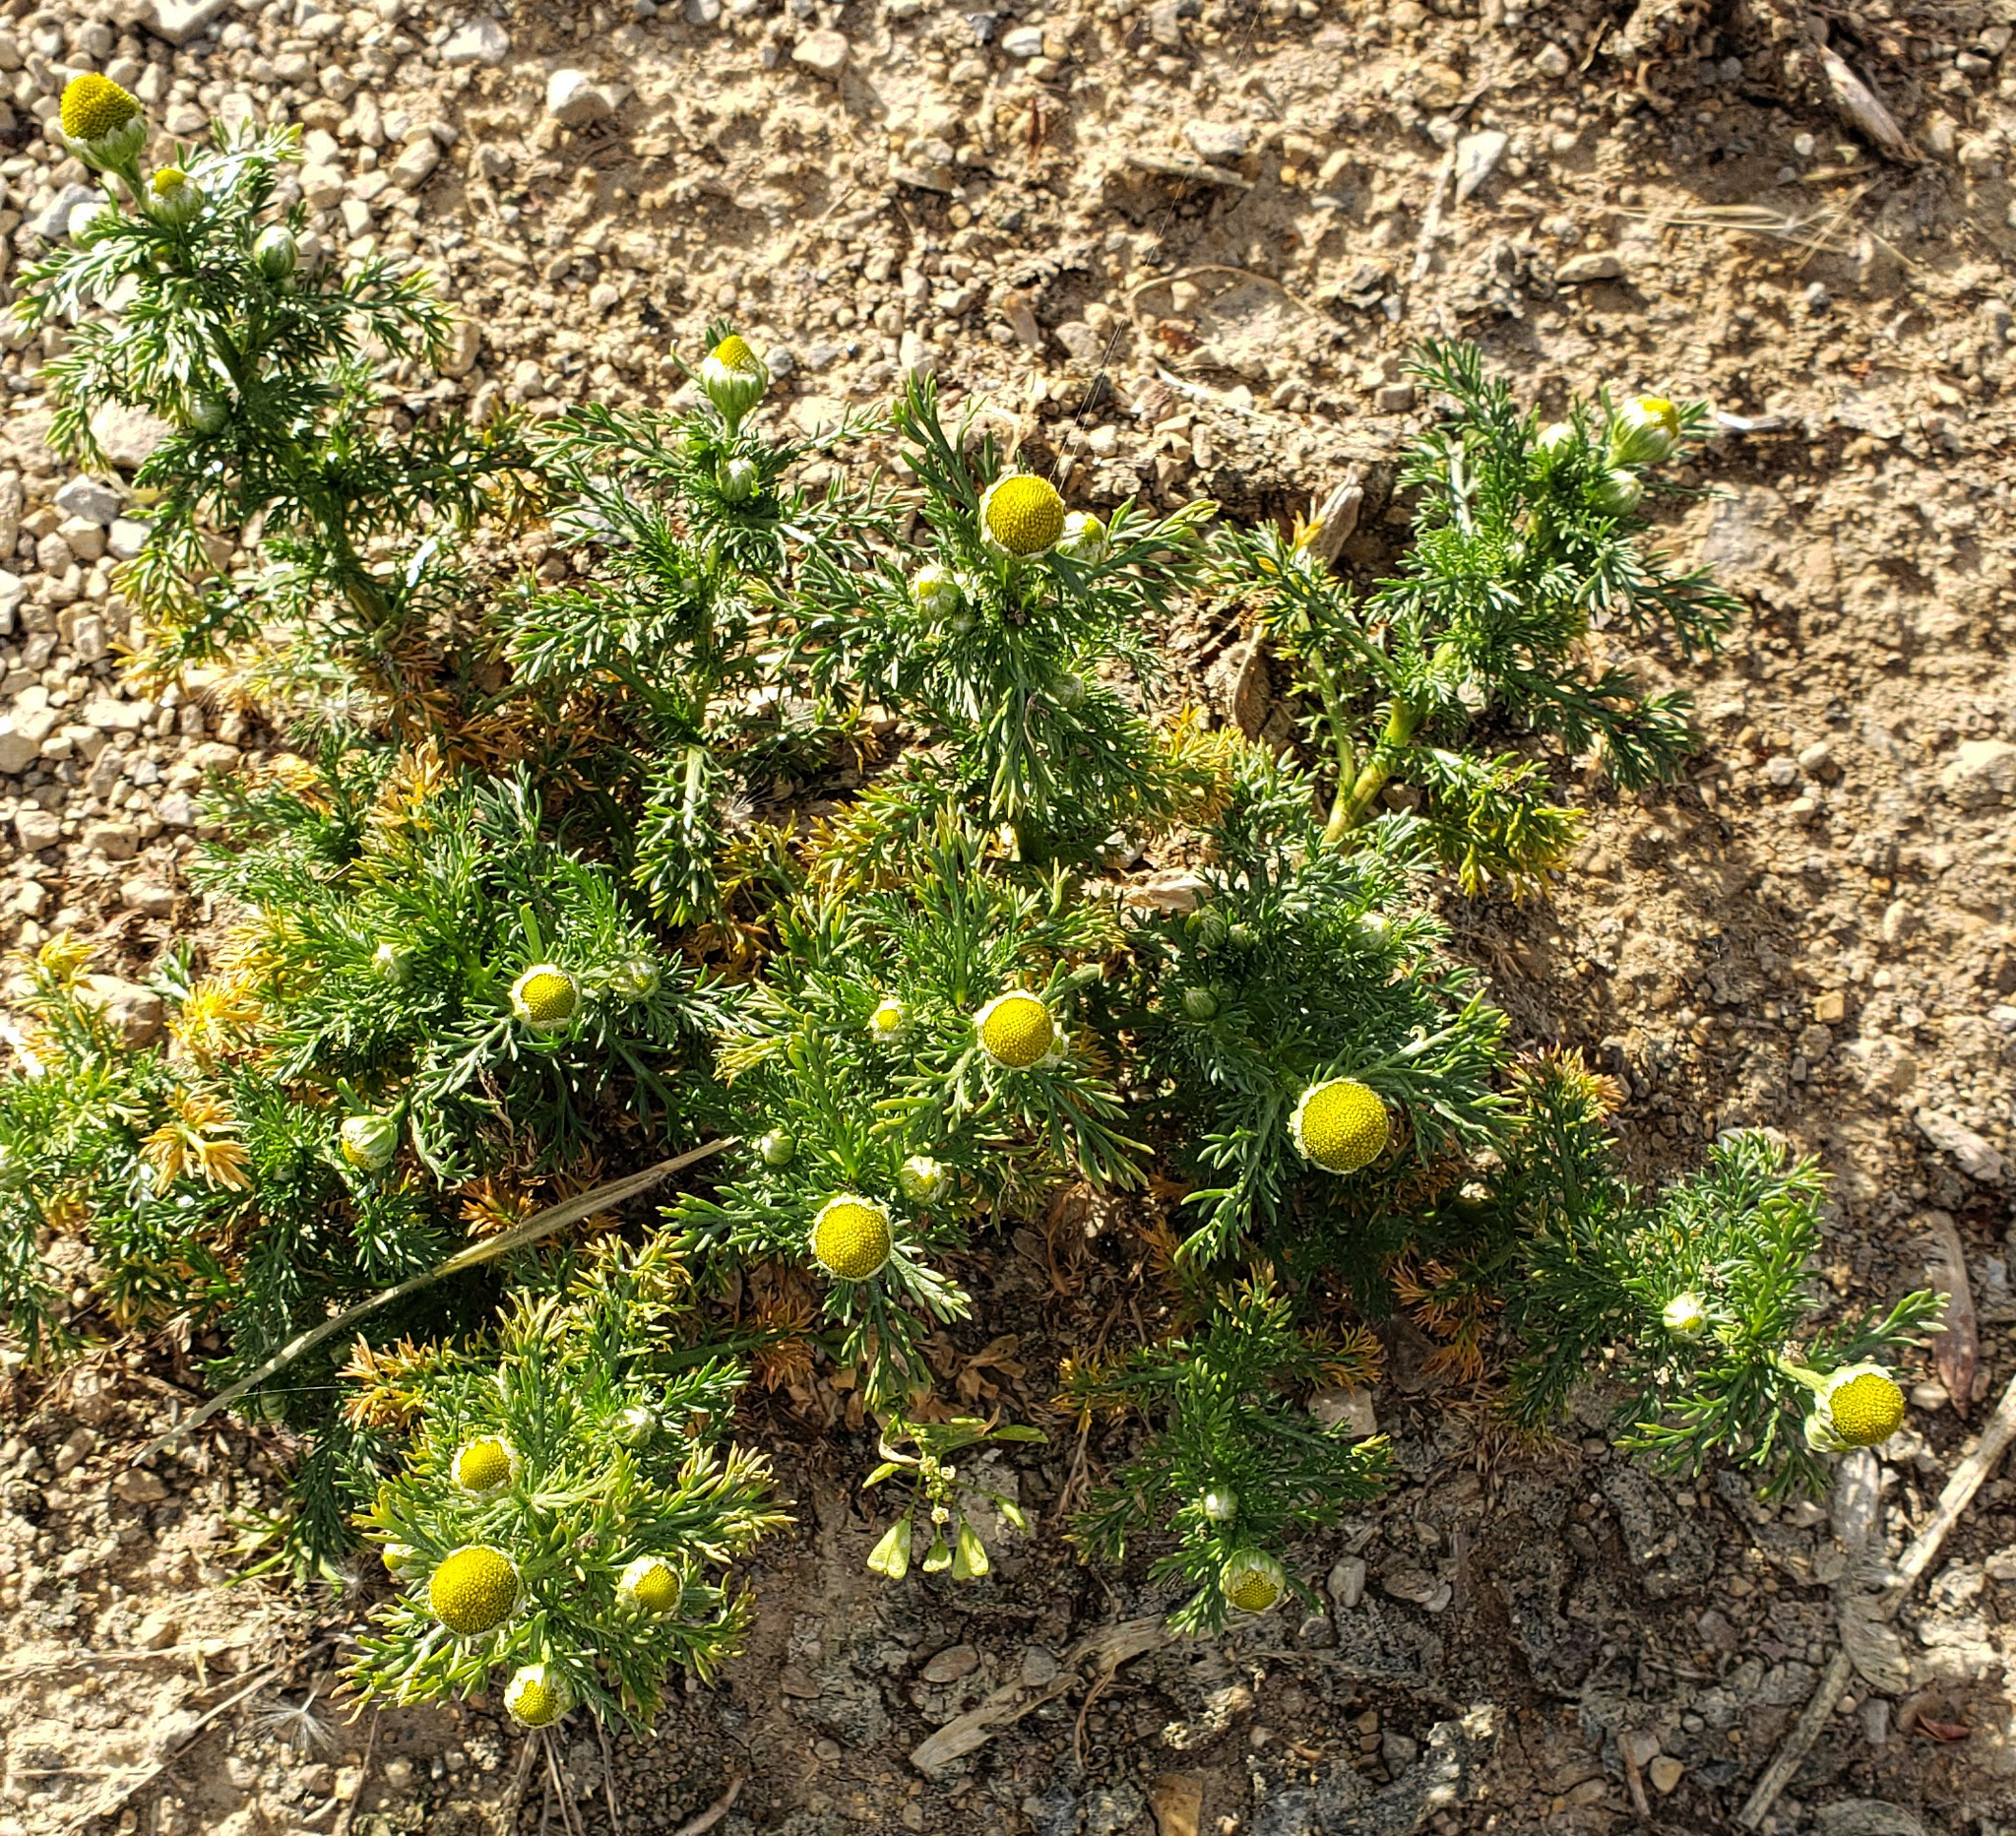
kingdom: Plantae
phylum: Tracheophyta
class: Magnoliopsida
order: Asterales
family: Asteraceae
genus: Matricaria
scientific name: Matricaria discoidea
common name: Disc mayweed
